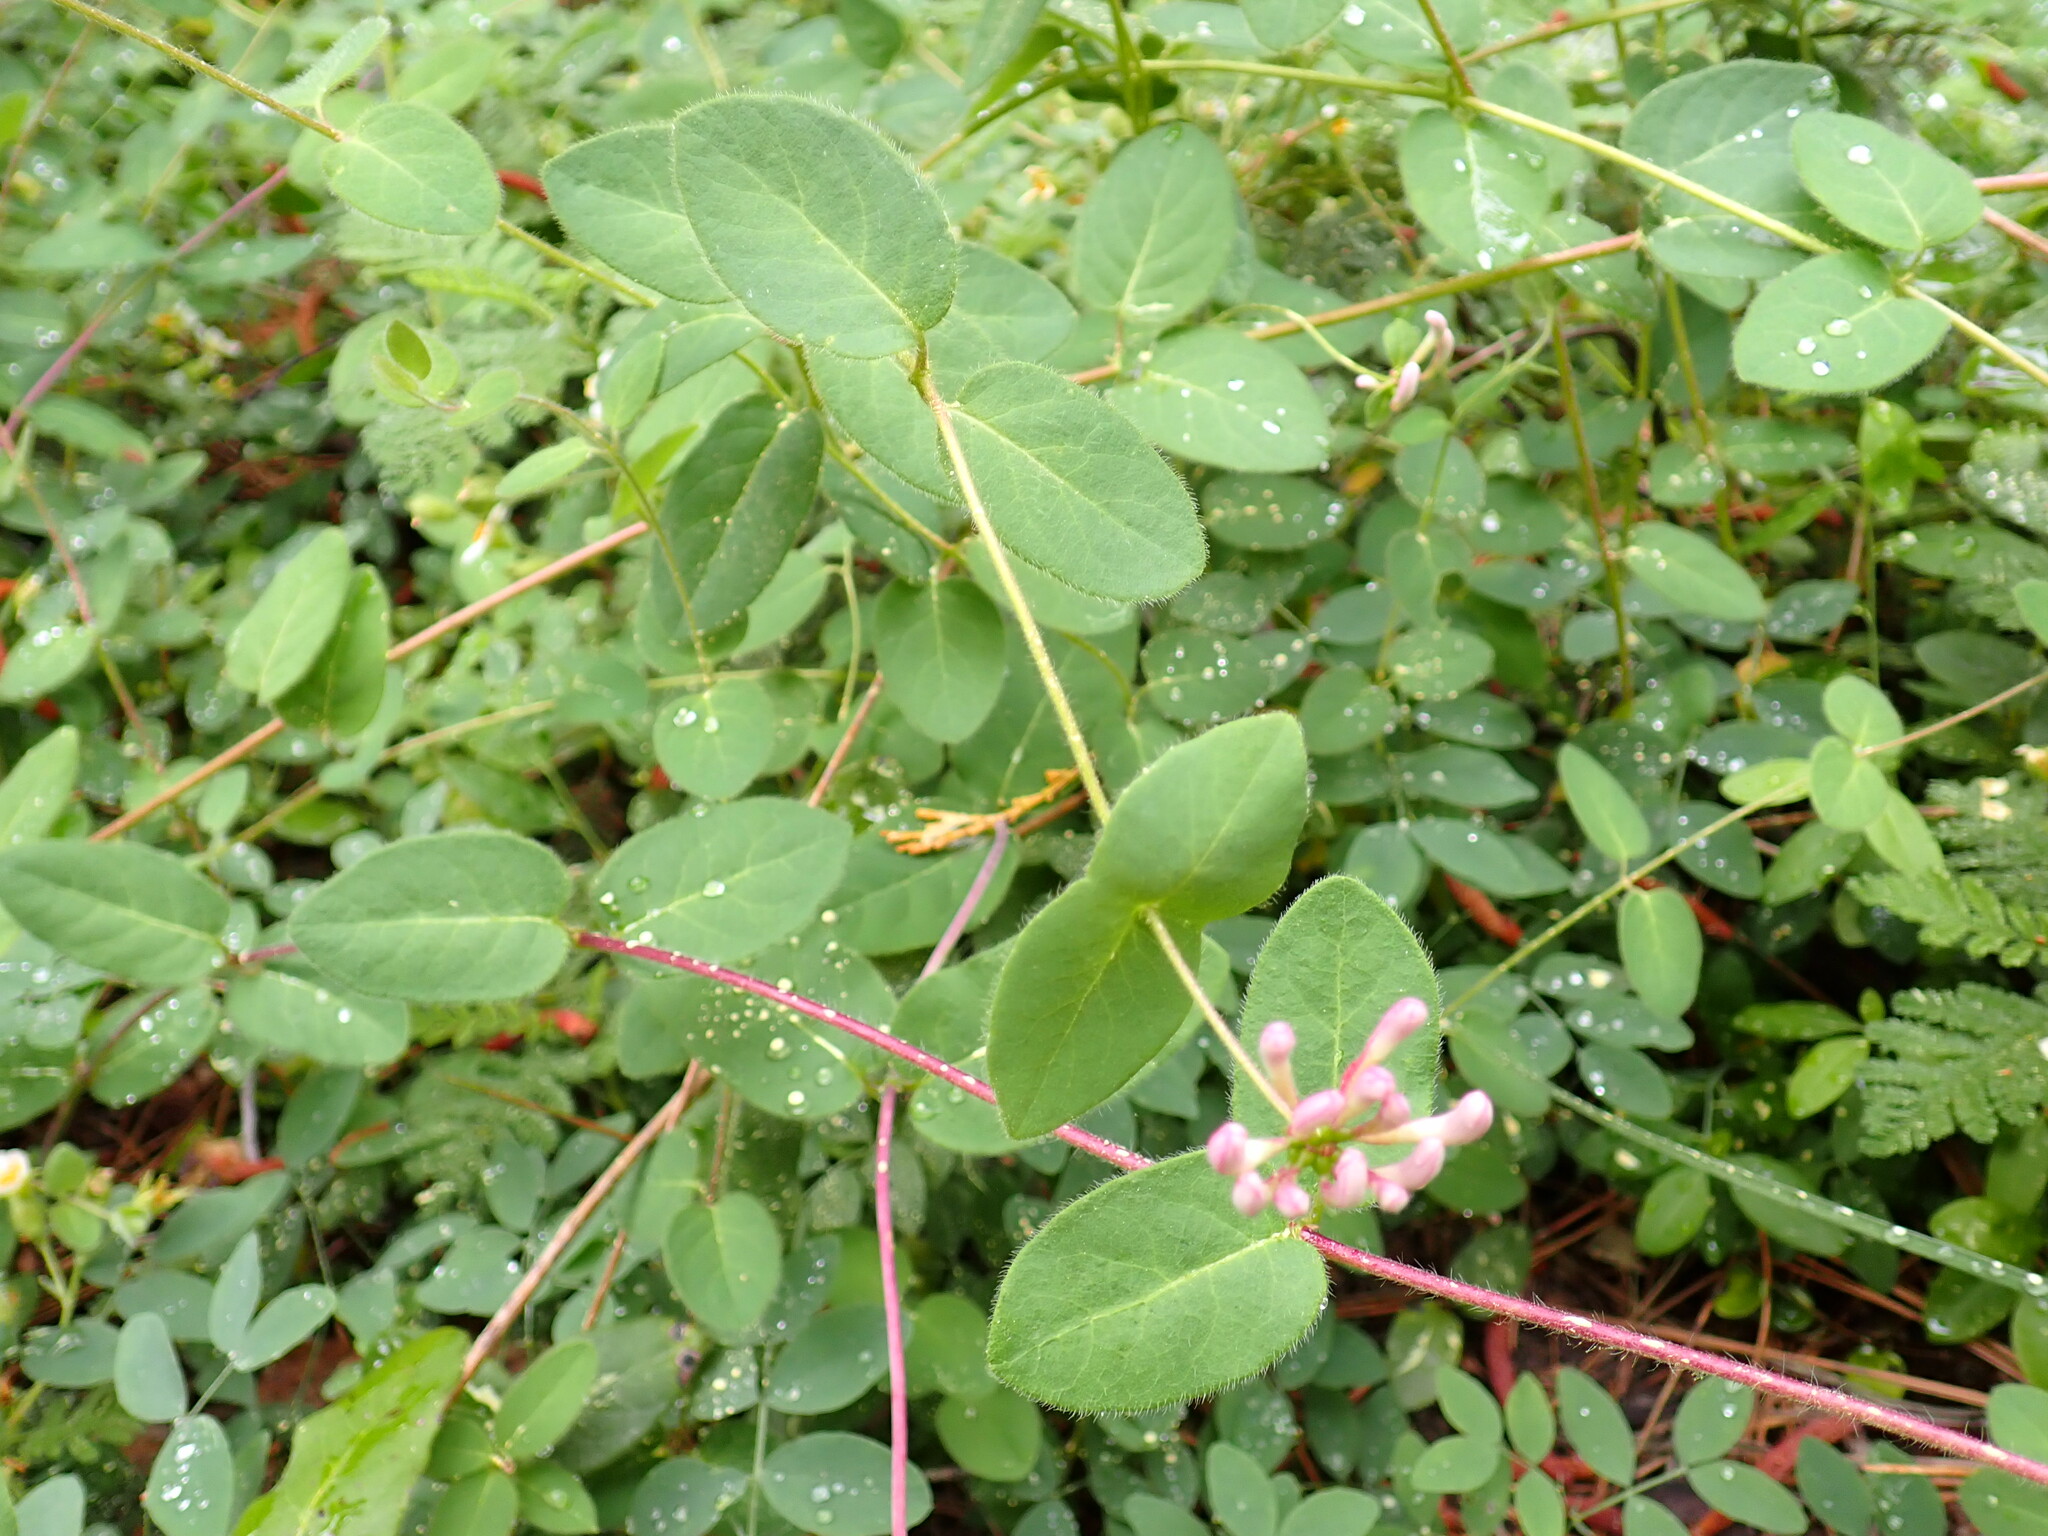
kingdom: Plantae
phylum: Tracheophyta
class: Magnoliopsida
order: Dipsacales
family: Caprifoliaceae
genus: Lonicera
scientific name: Lonicera hispidula
